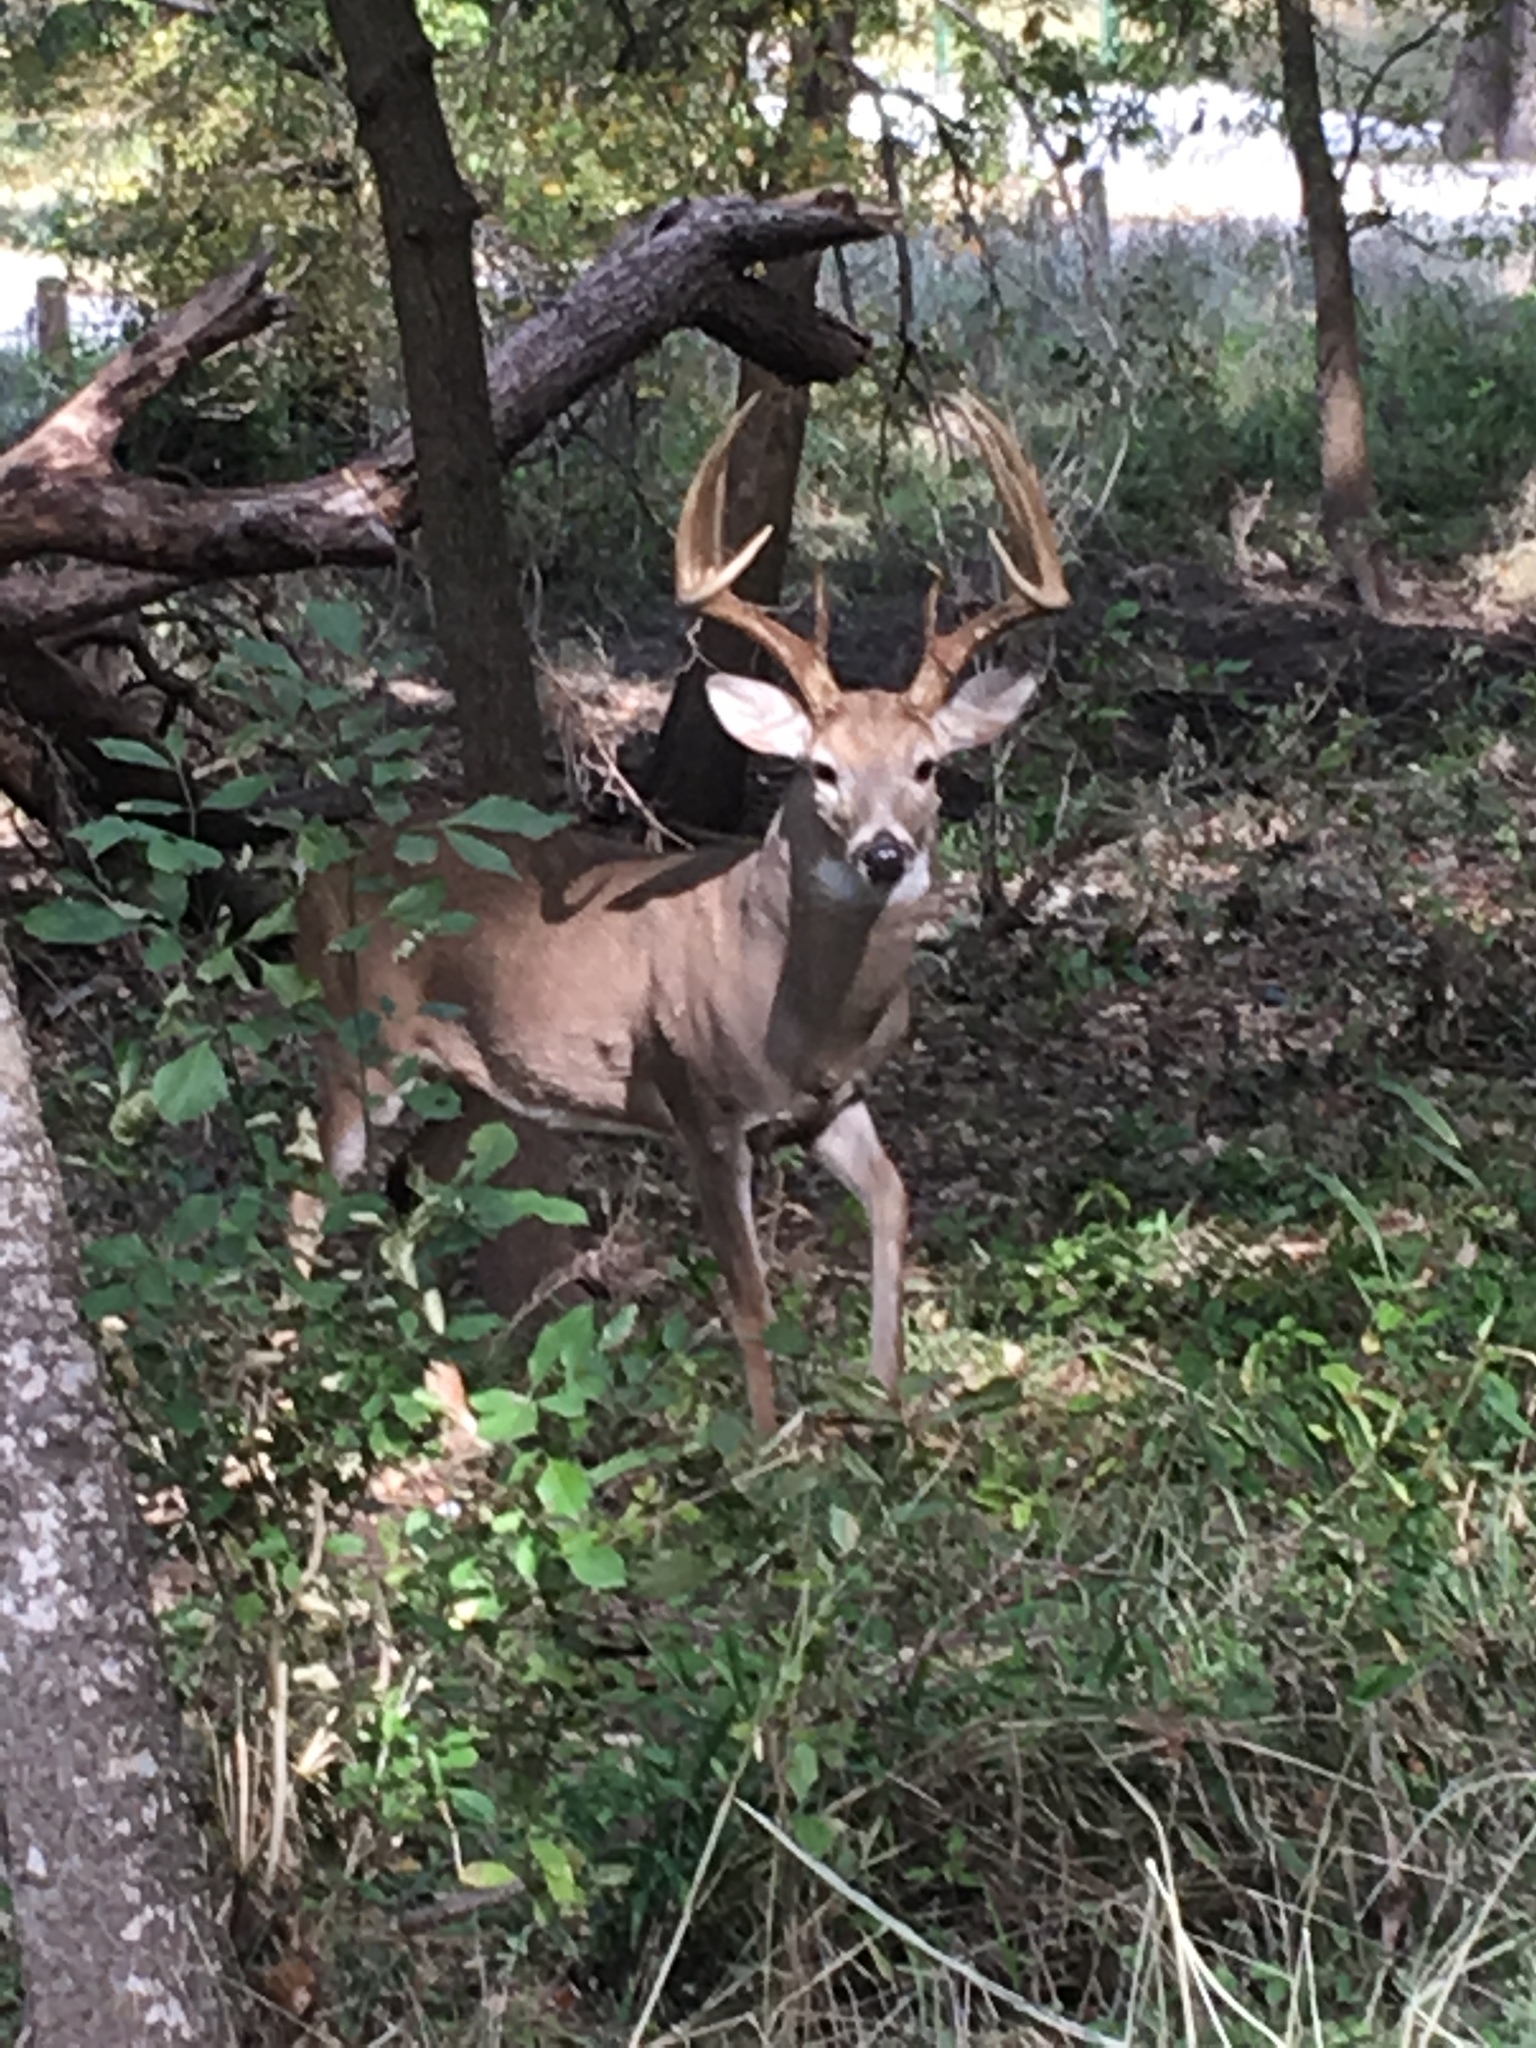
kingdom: Animalia
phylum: Chordata
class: Mammalia
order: Artiodactyla
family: Cervidae
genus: Odocoileus
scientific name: Odocoileus virginianus
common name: White-tailed deer
